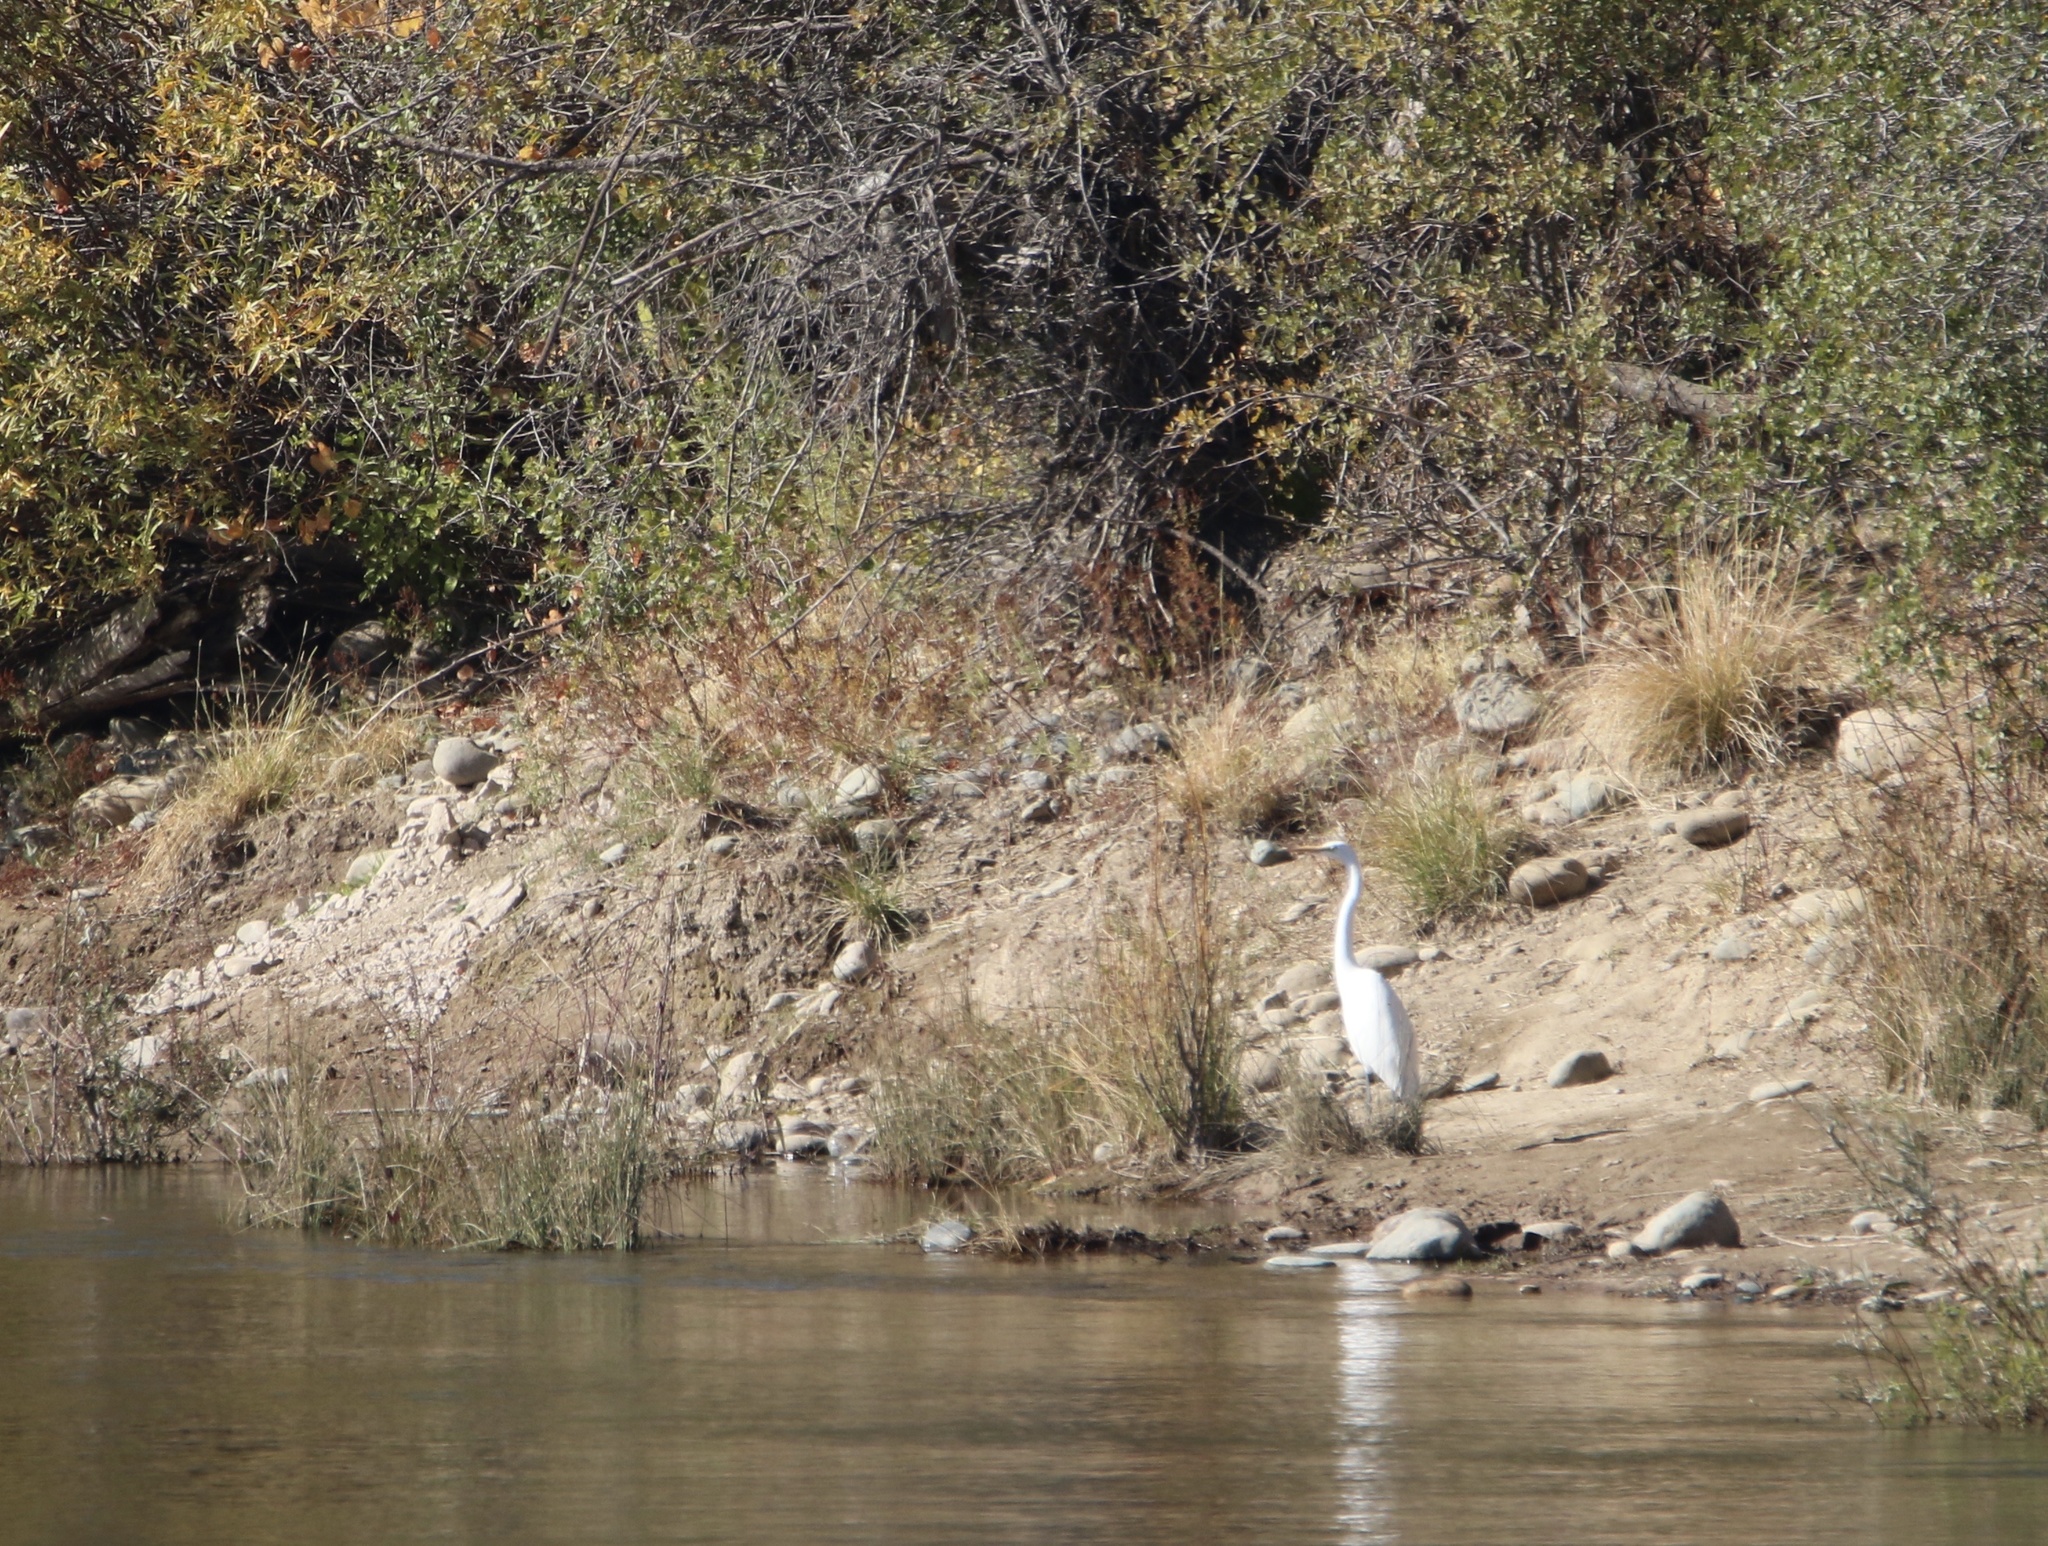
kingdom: Animalia
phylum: Chordata
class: Aves
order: Pelecaniformes
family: Ardeidae
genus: Ardea
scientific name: Ardea alba
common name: Great egret
